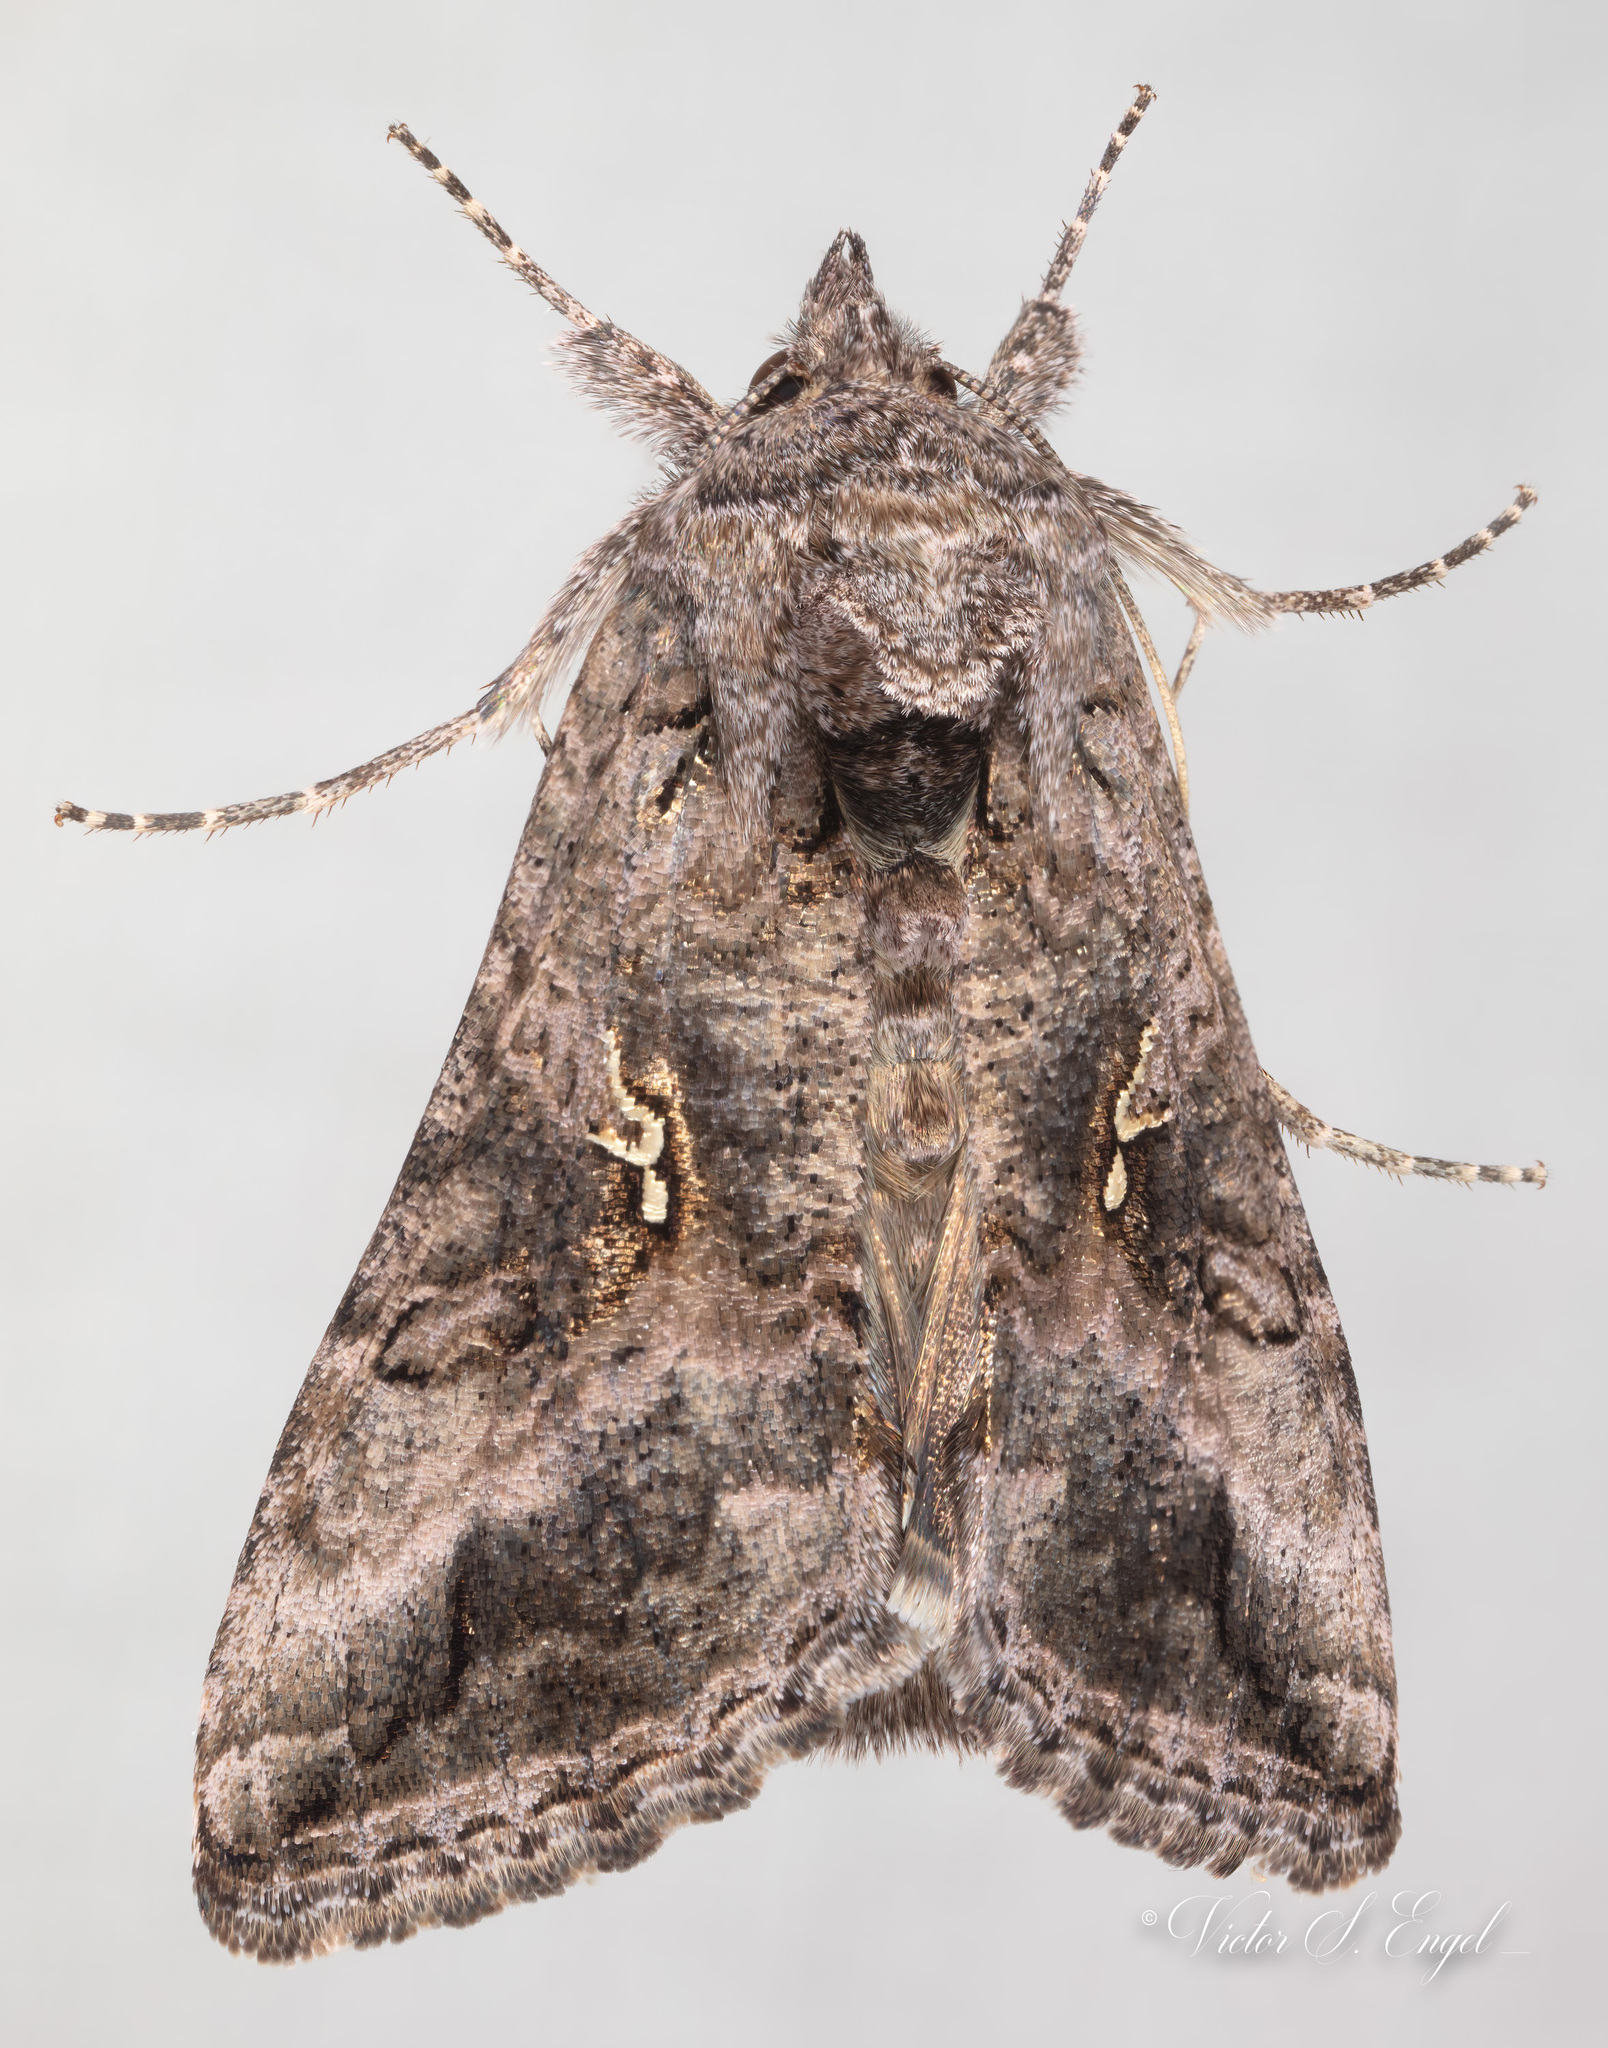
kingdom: Animalia
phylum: Arthropoda
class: Insecta
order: Lepidoptera
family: Noctuidae
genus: Rachiplusia
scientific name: Rachiplusia ou
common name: Gray looper moth
